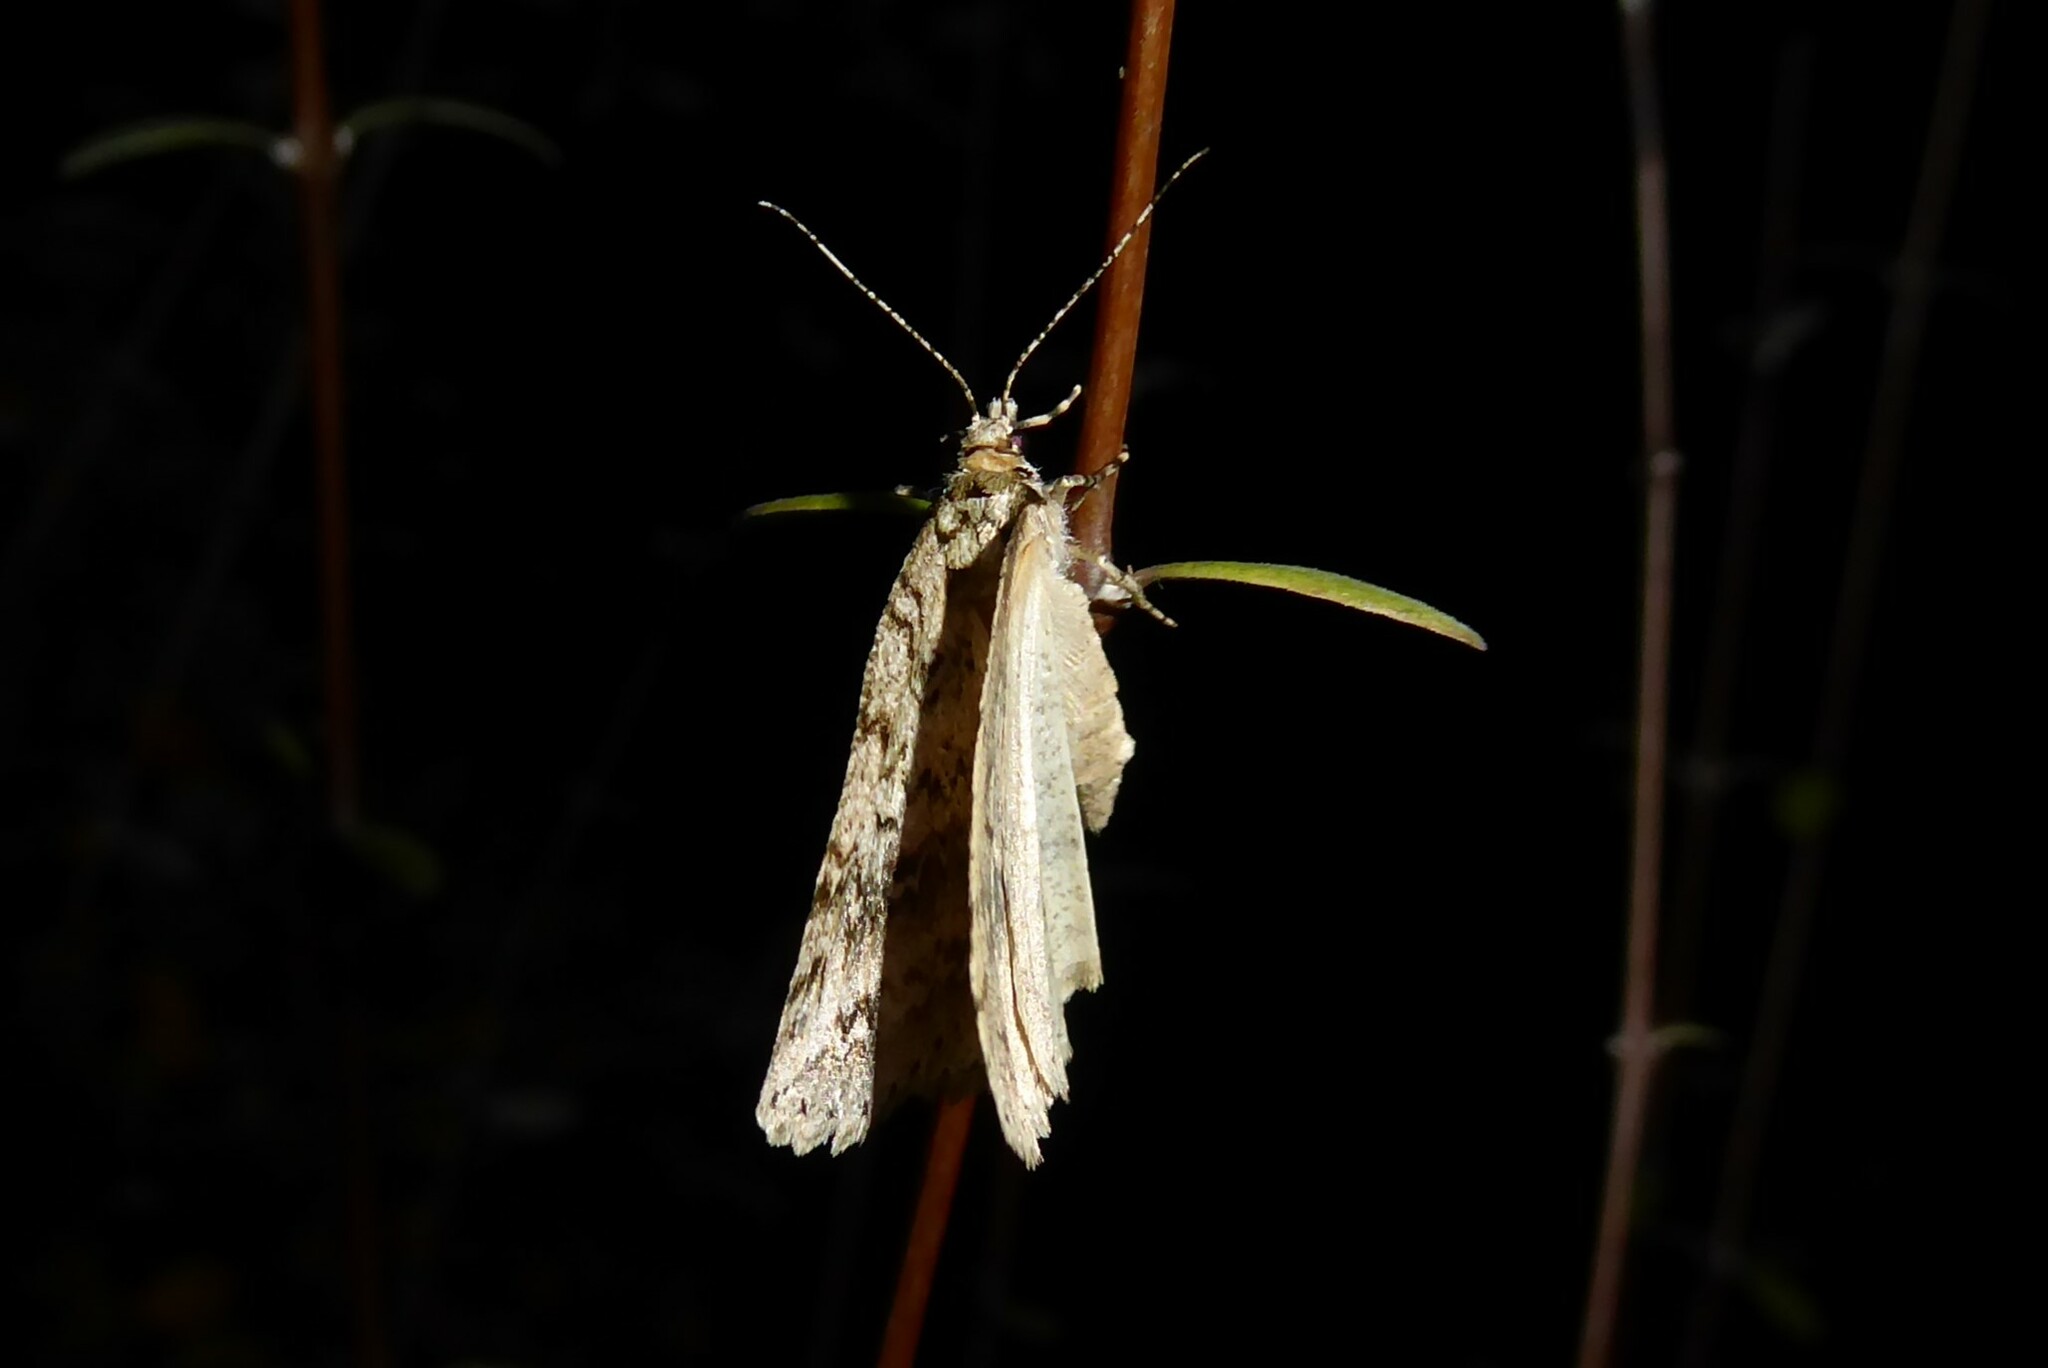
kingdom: Animalia
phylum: Arthropoda
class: Insecta
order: Lepidoptera
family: Geometridae
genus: Pseudocoremia
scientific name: Pseudocoremia rudisata
